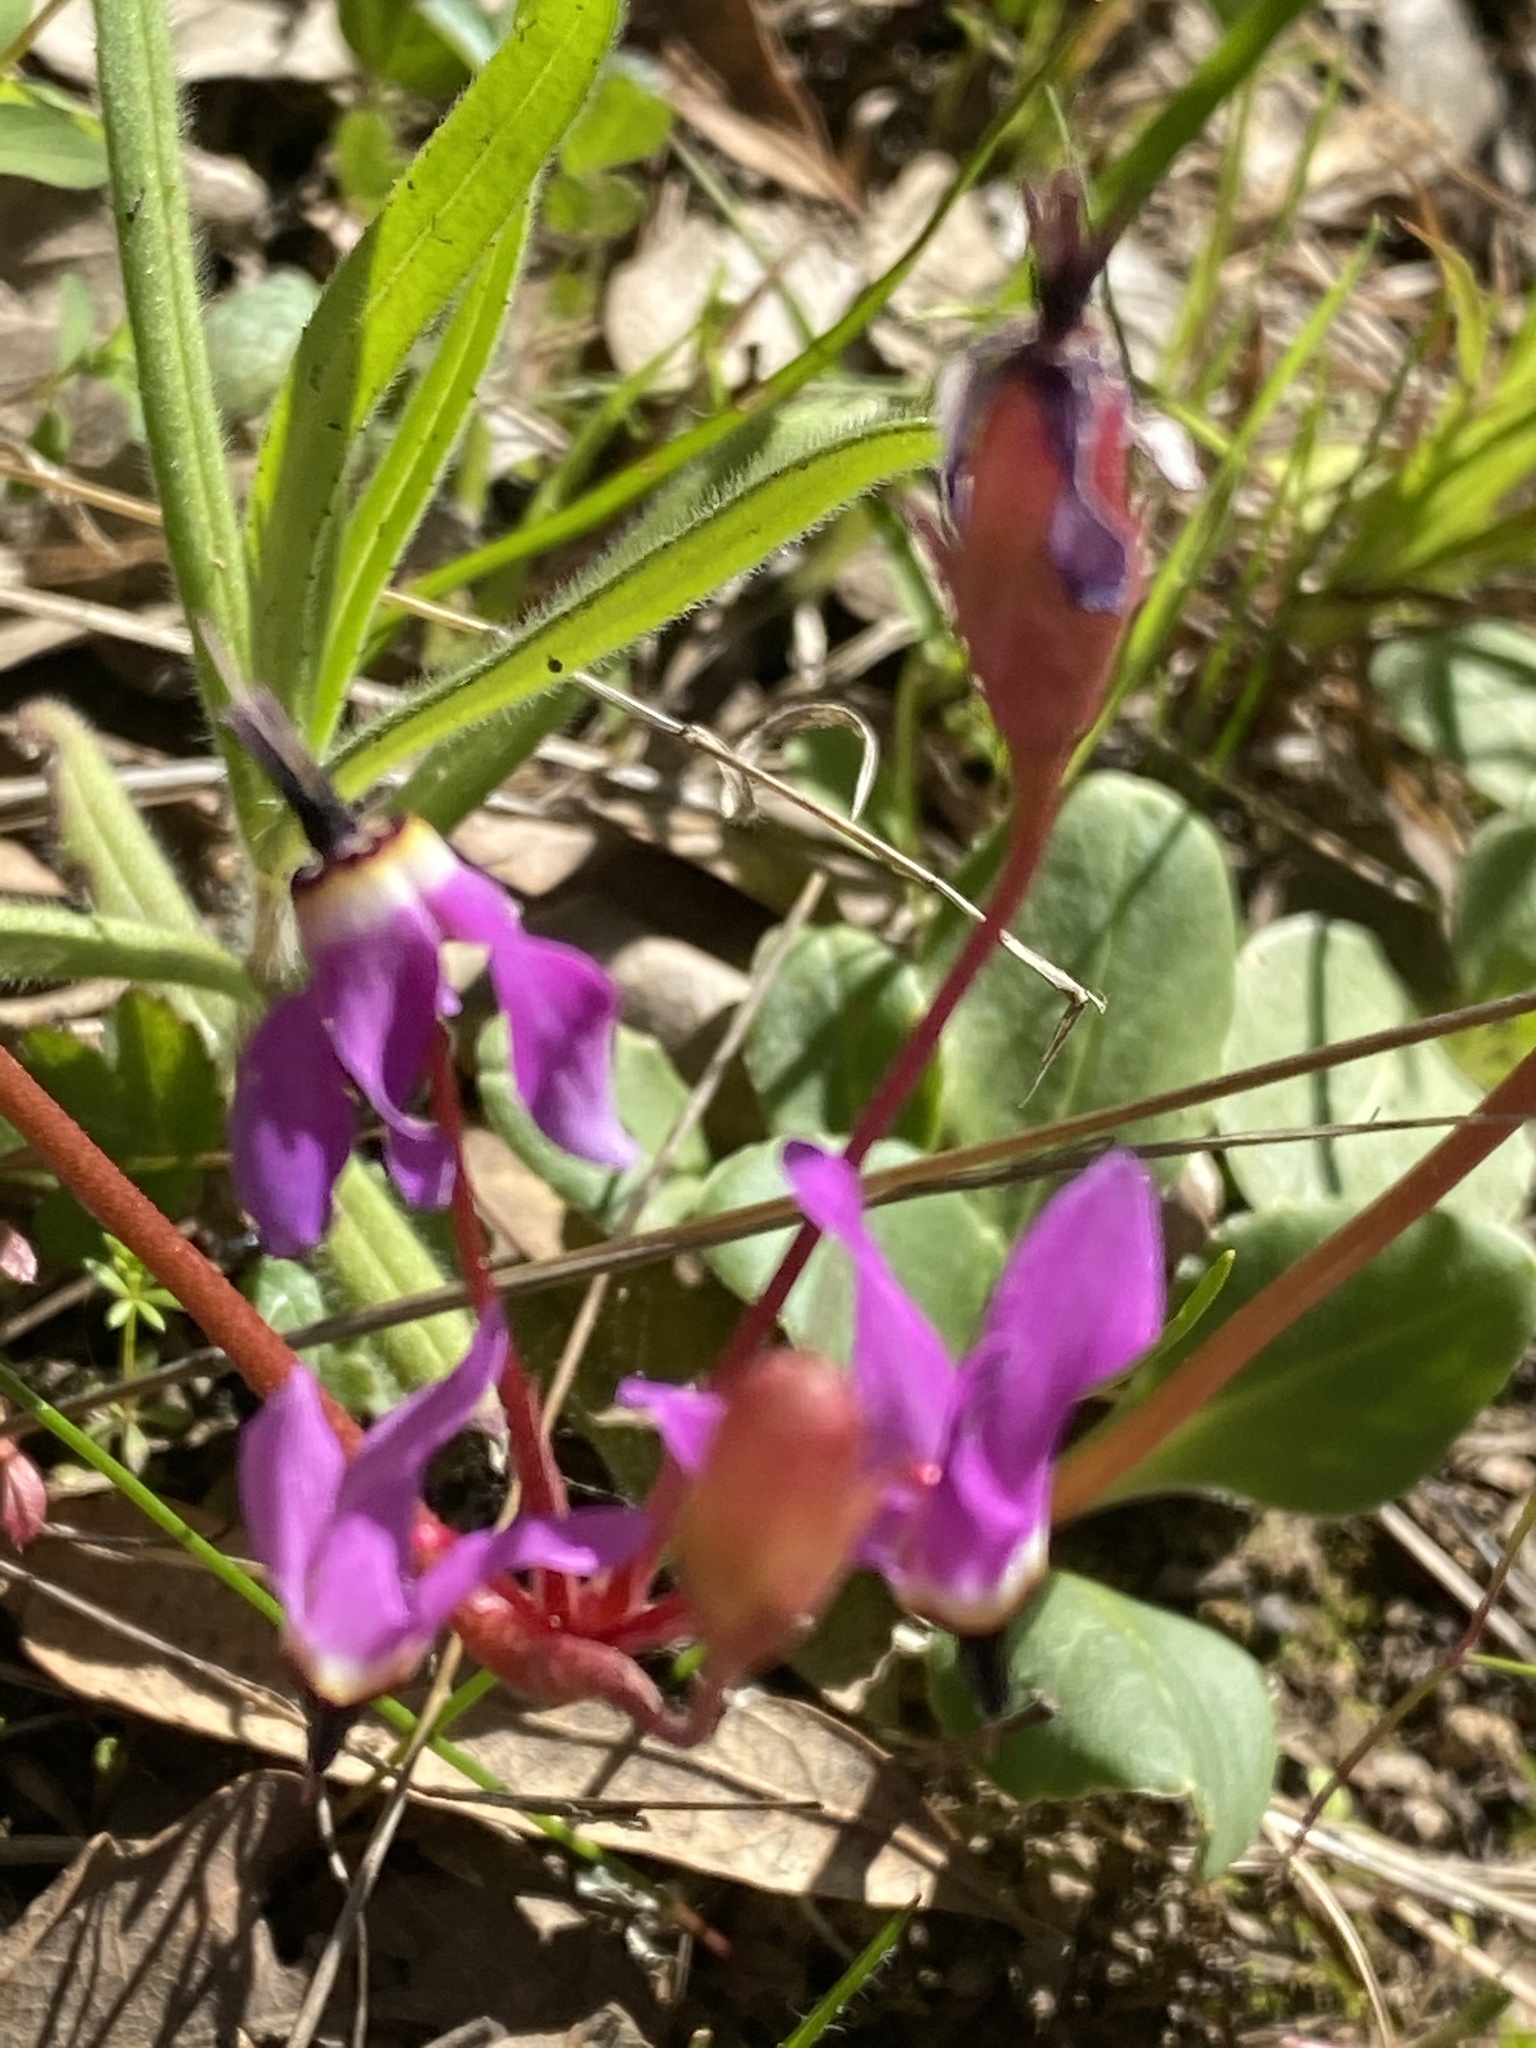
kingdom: Plantae
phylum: Tracheophyta
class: Magnoliopsida
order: Ericales
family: Primulaceae
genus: Dodecatheon
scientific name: Dodecatheon hendersonii
